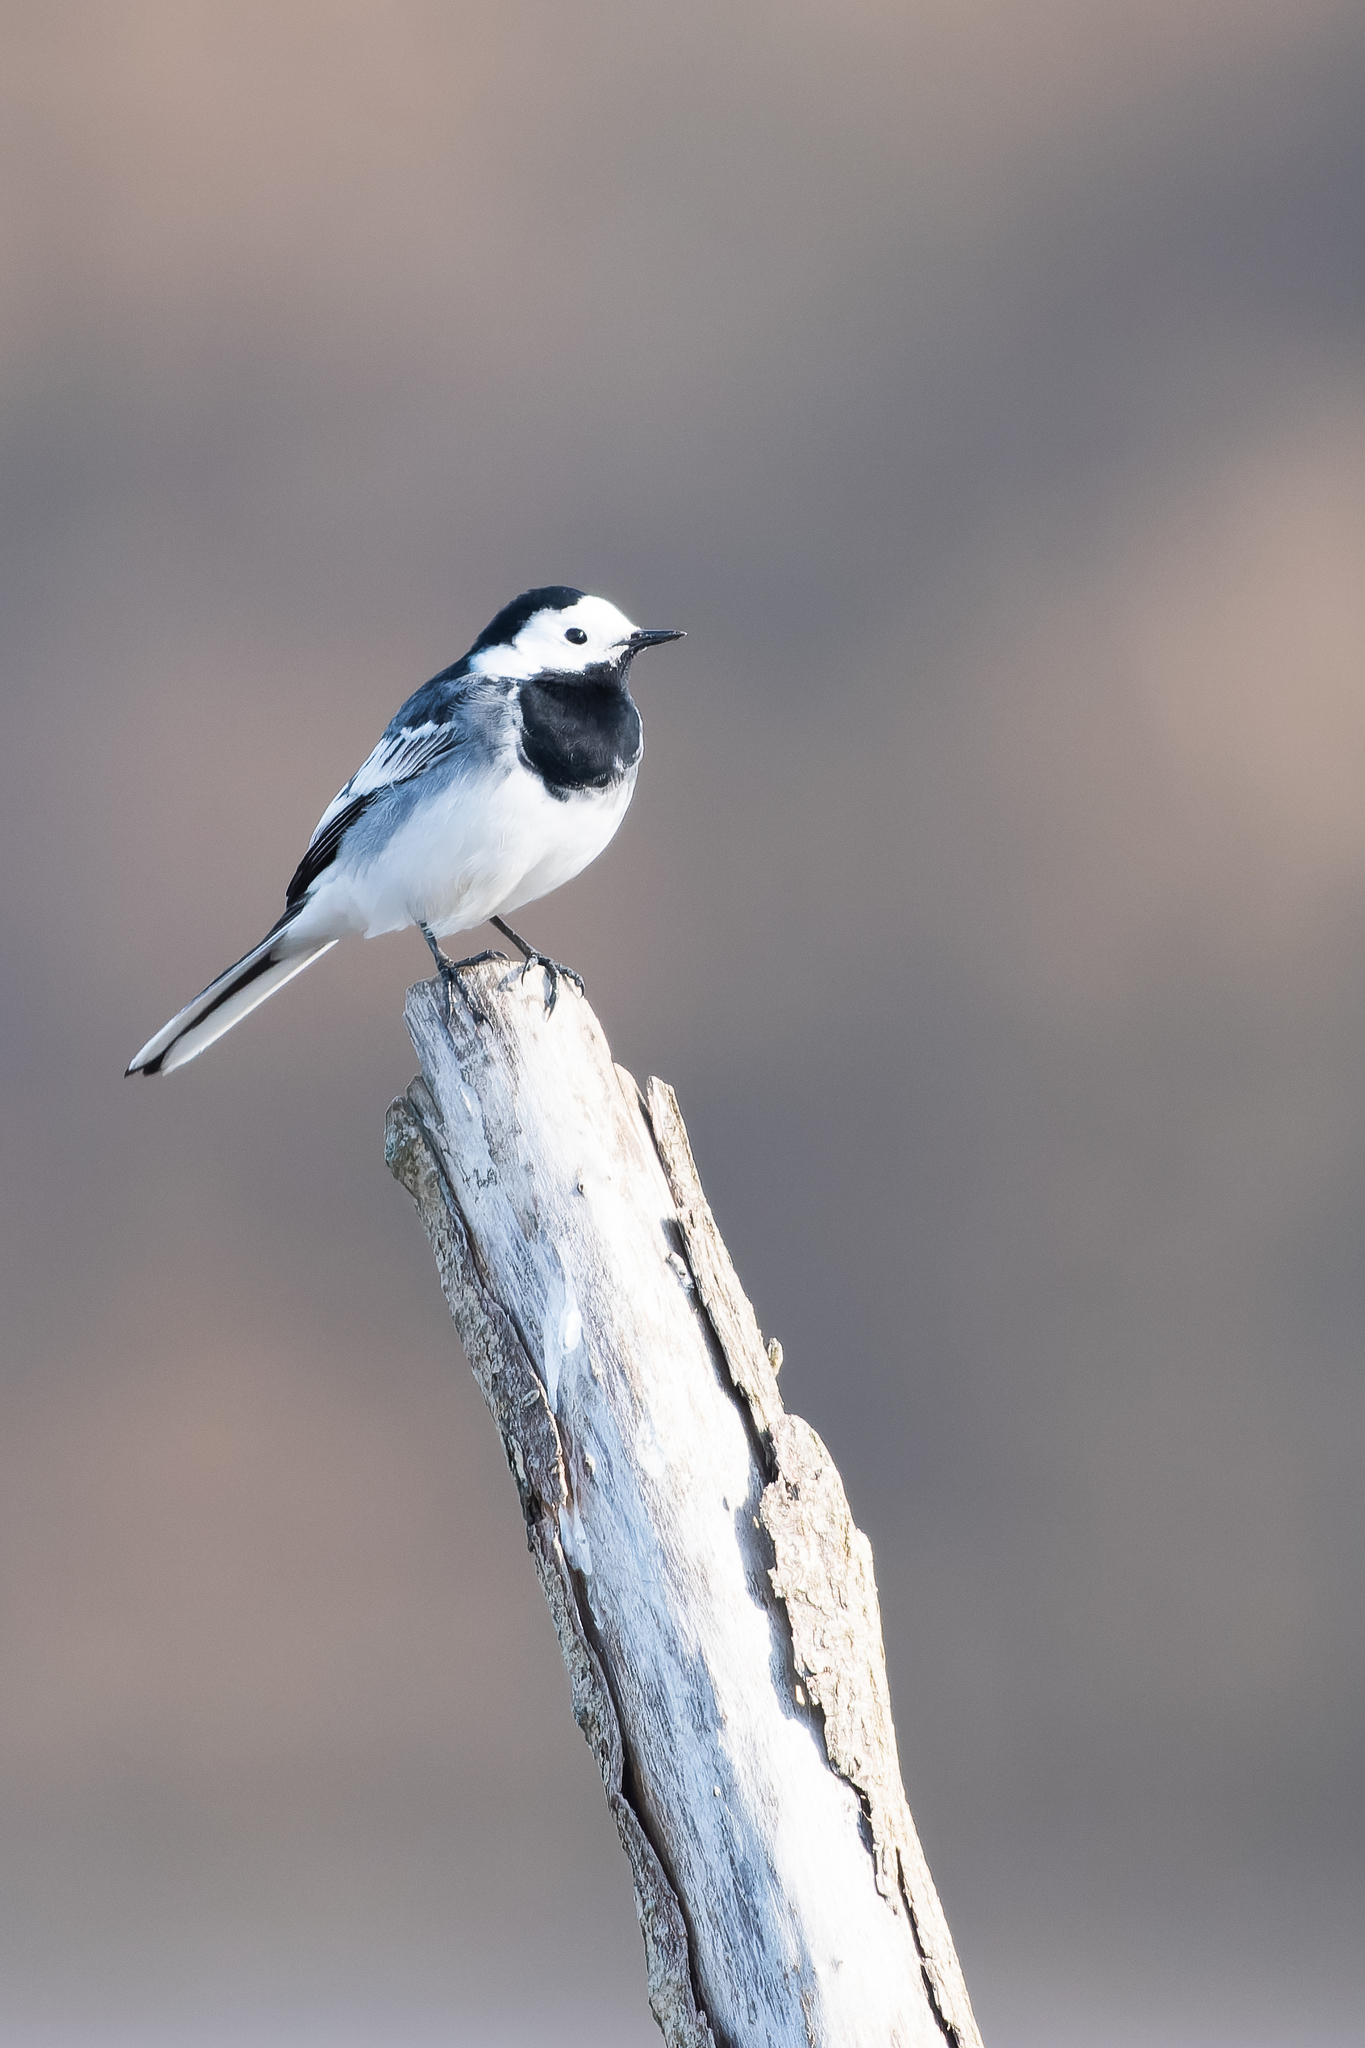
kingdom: Animalia
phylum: Chordata
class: Aves
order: Passeriformes
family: Motacillidae
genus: Motacilla
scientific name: Motacilla alba
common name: White wagtail
